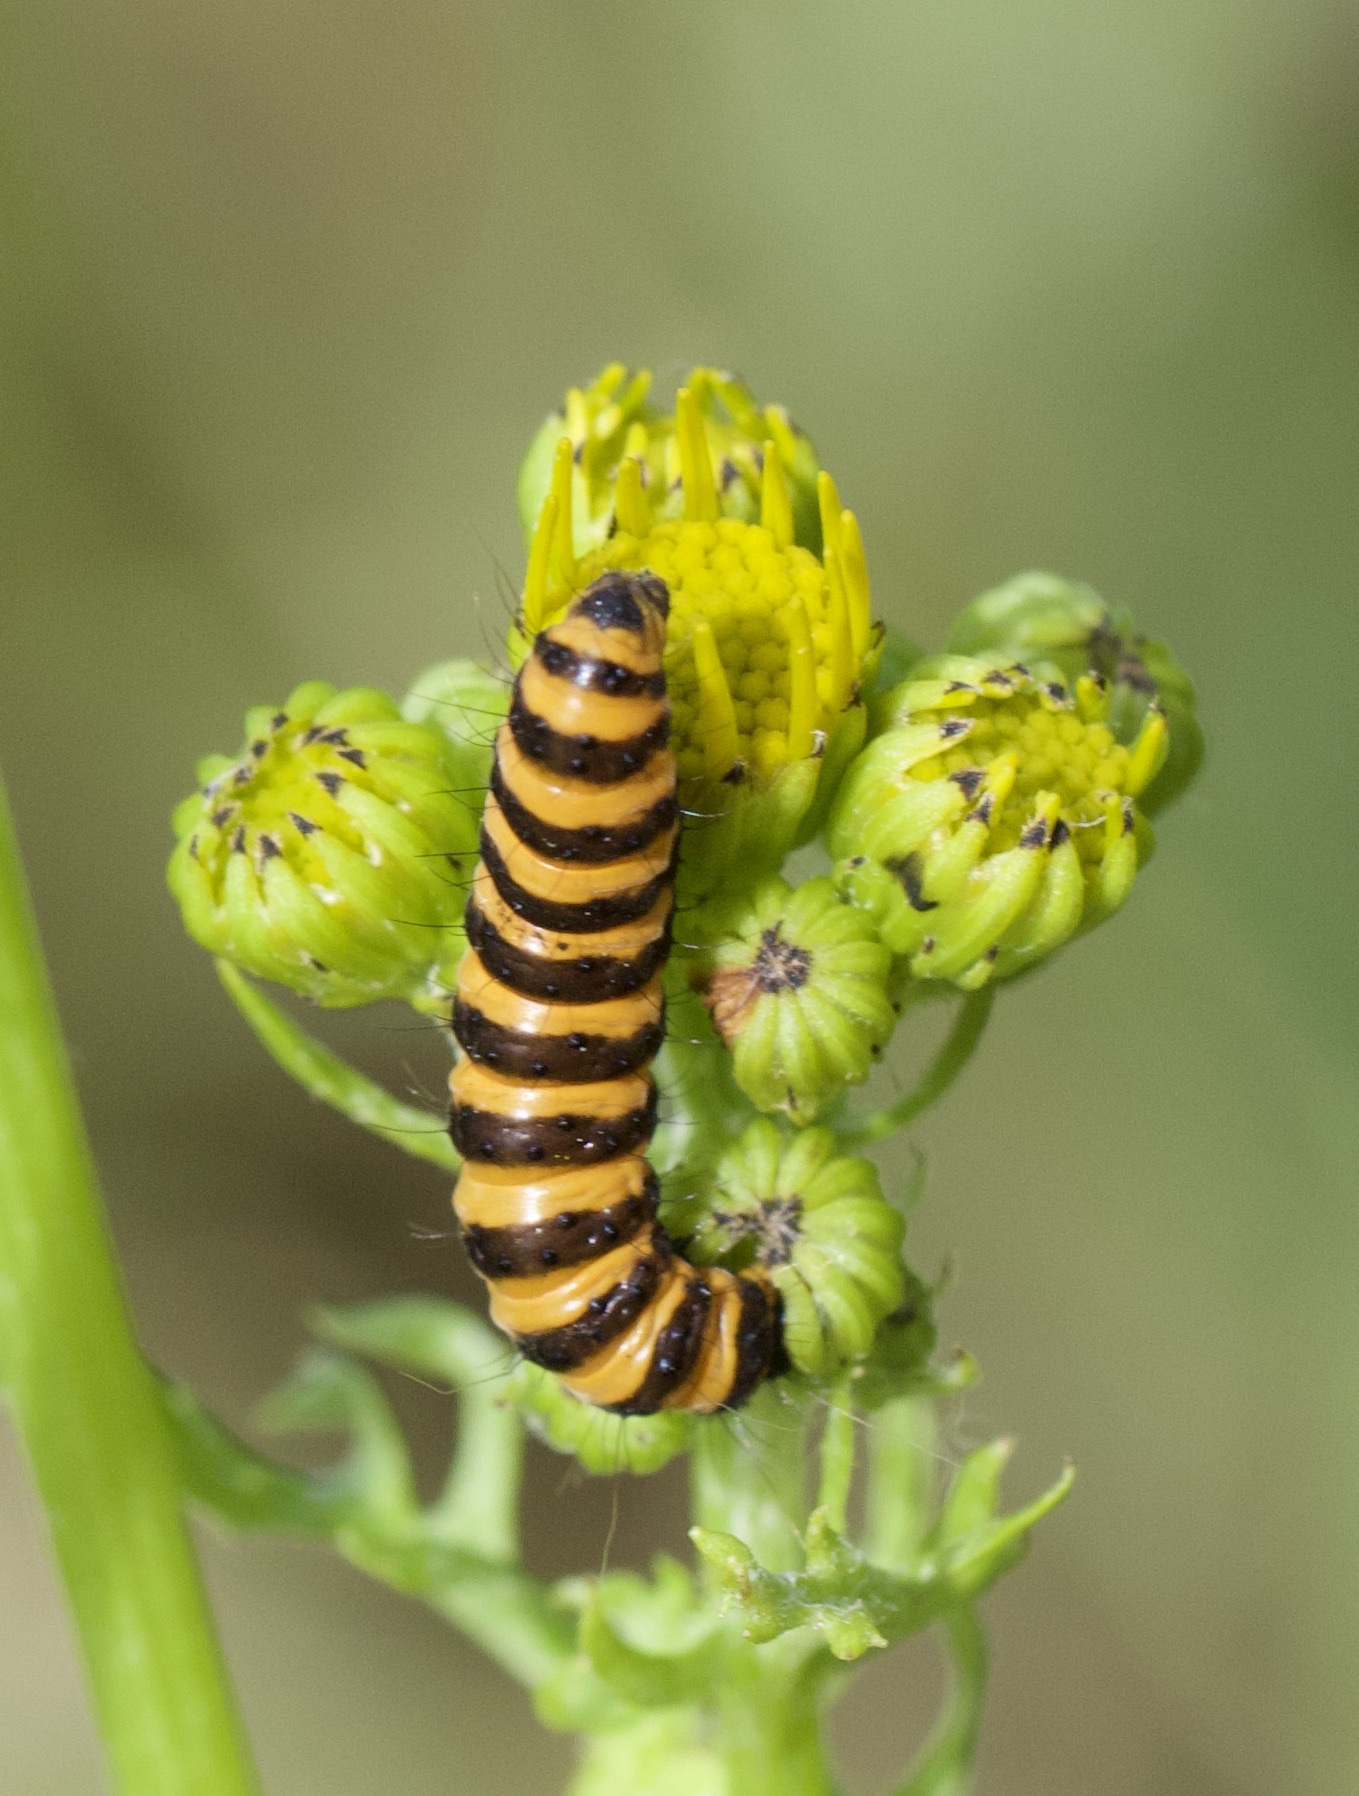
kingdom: Animalia
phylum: Arthropoda
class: Insecta
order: Lepidoptera
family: Erebidae
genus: Tyria
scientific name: Tyria jacobaeae
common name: Cinnabar
